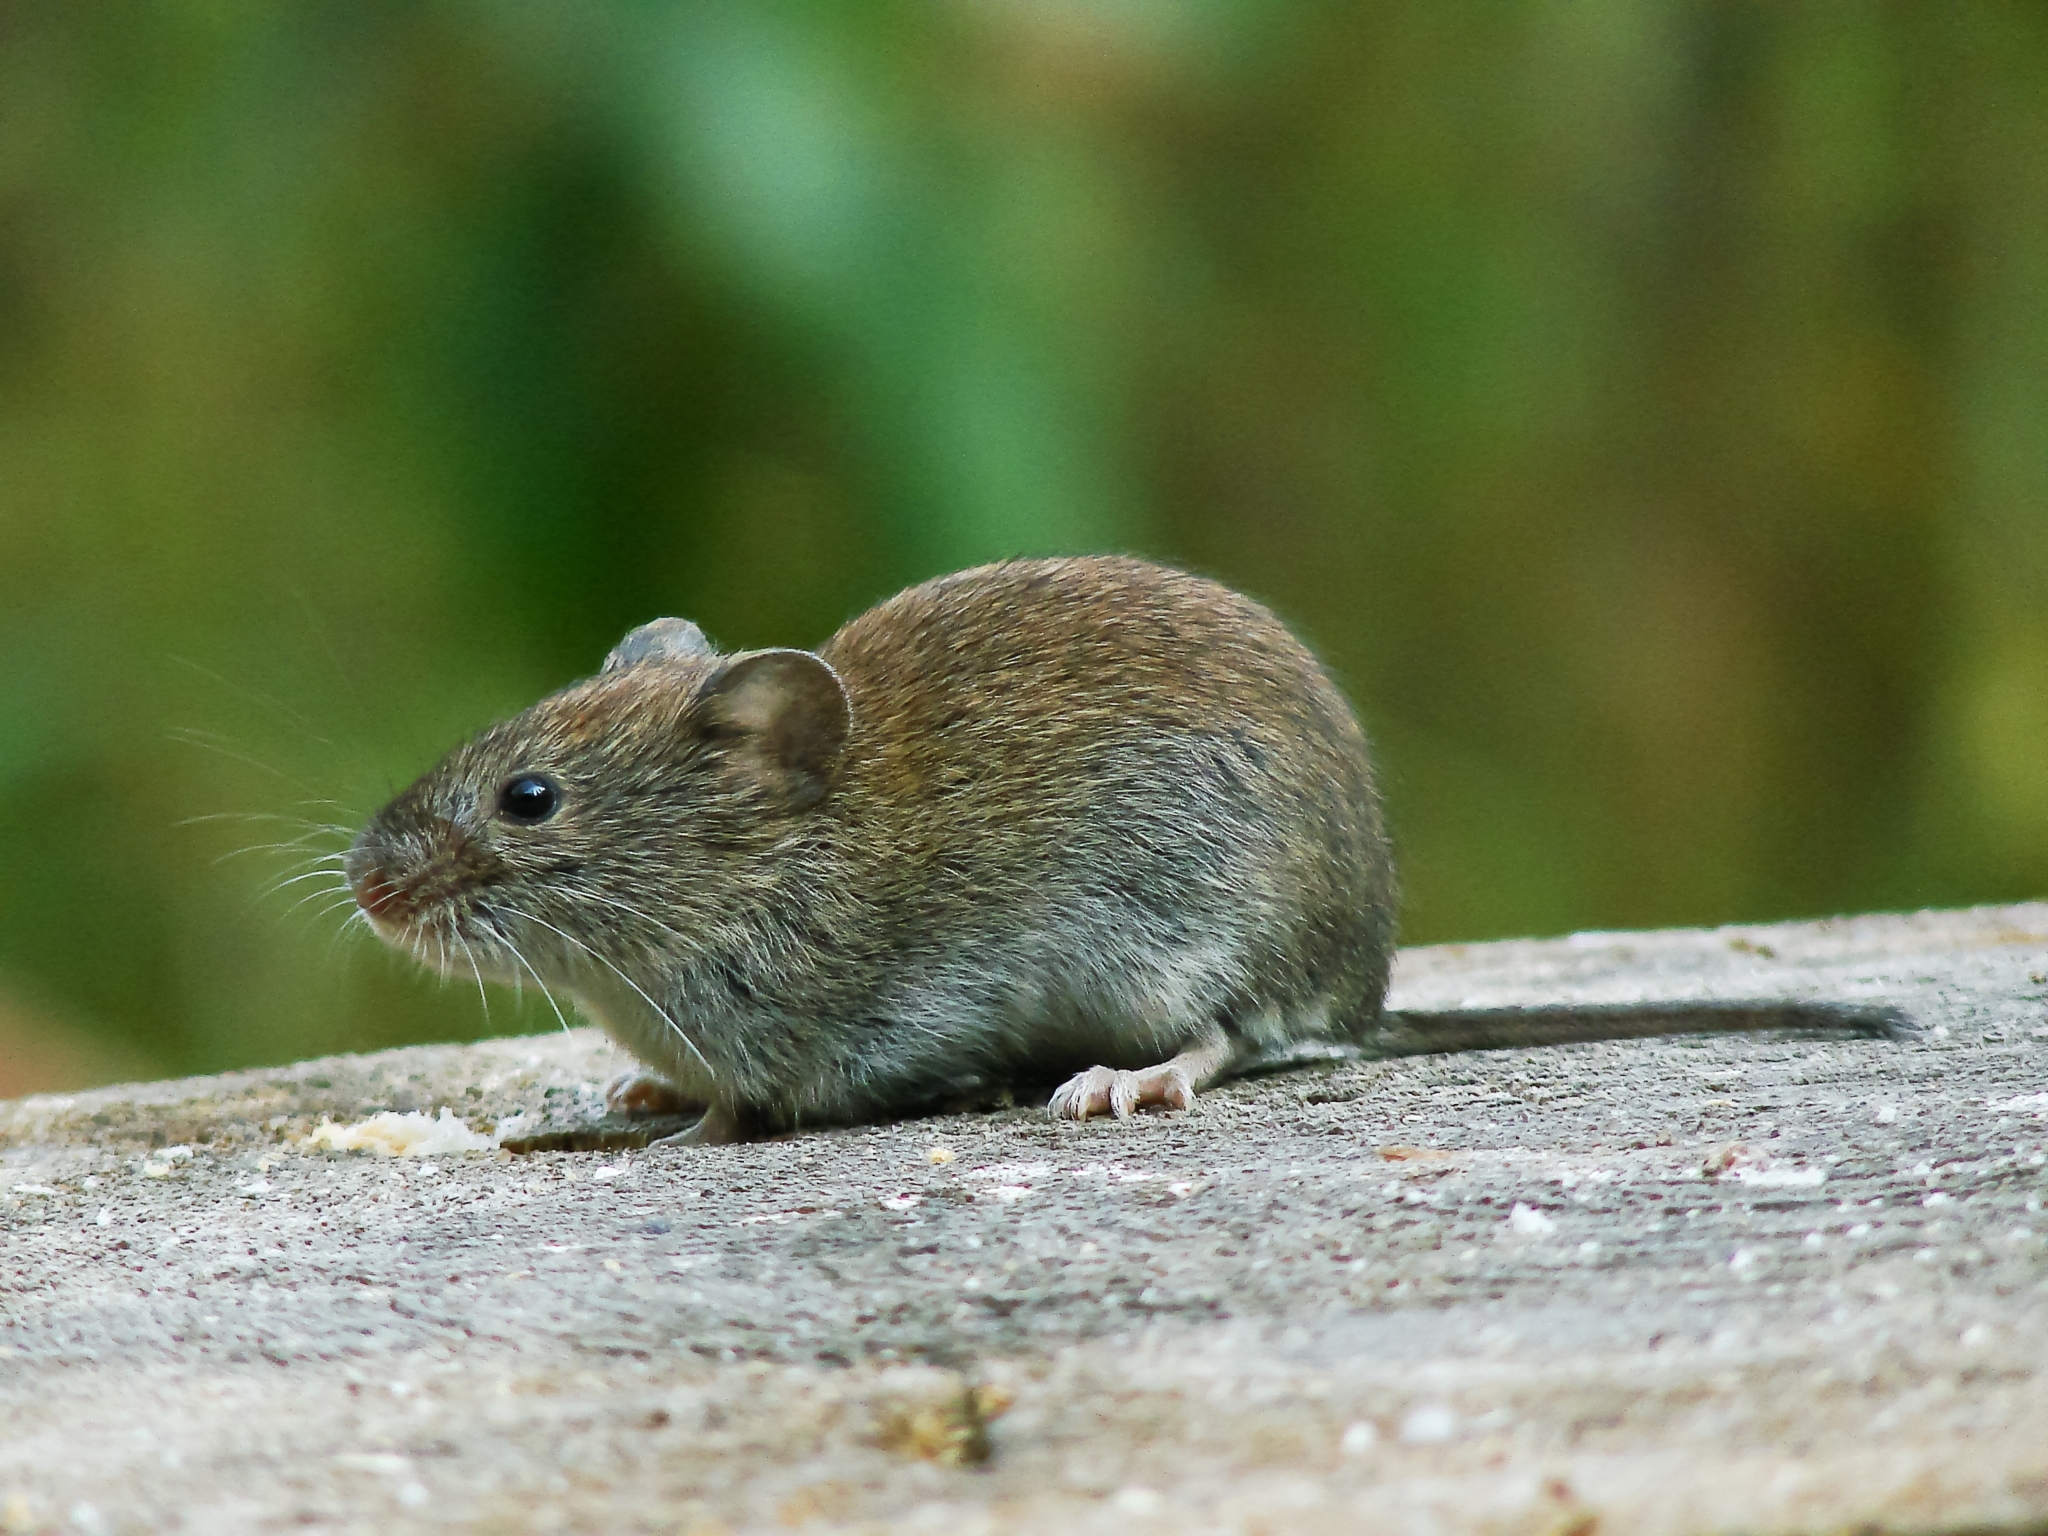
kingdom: Animalia
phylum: Chordata
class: Mammalia
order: Rodentia
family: Cricetidae
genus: Myodes
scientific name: Myodes glareolus
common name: Bank vole
